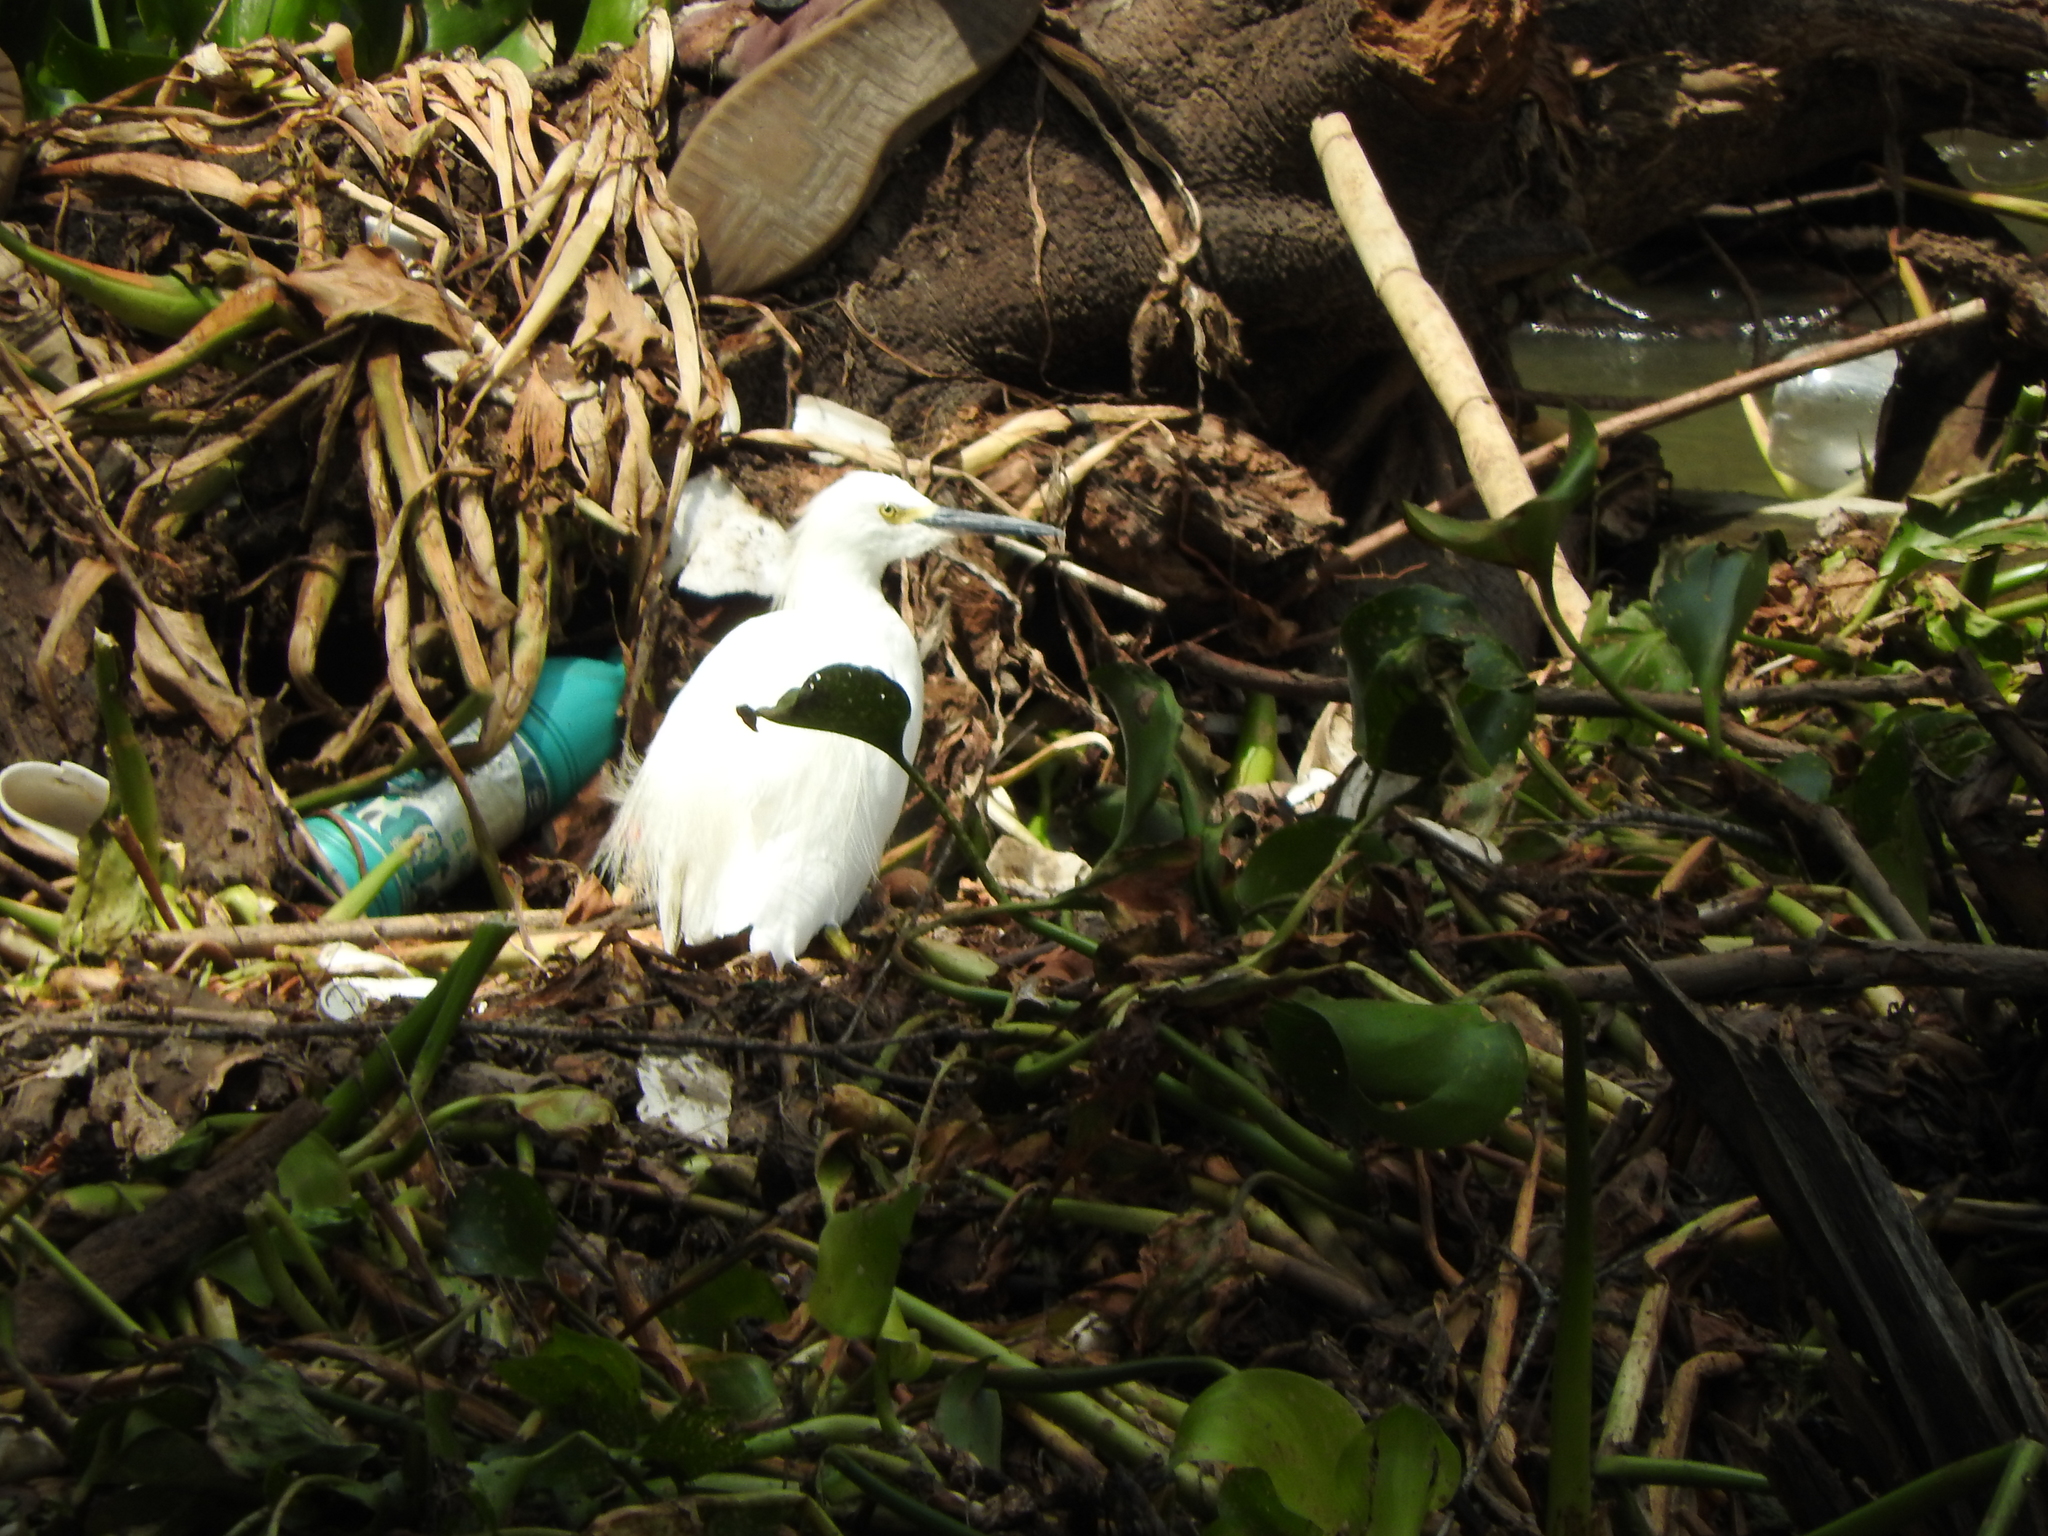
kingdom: Animalia
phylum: Chordata
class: Aves
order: Pelecaniformes
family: Ardeidae
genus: Egretta
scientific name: Egretta thula
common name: Snowy egret
